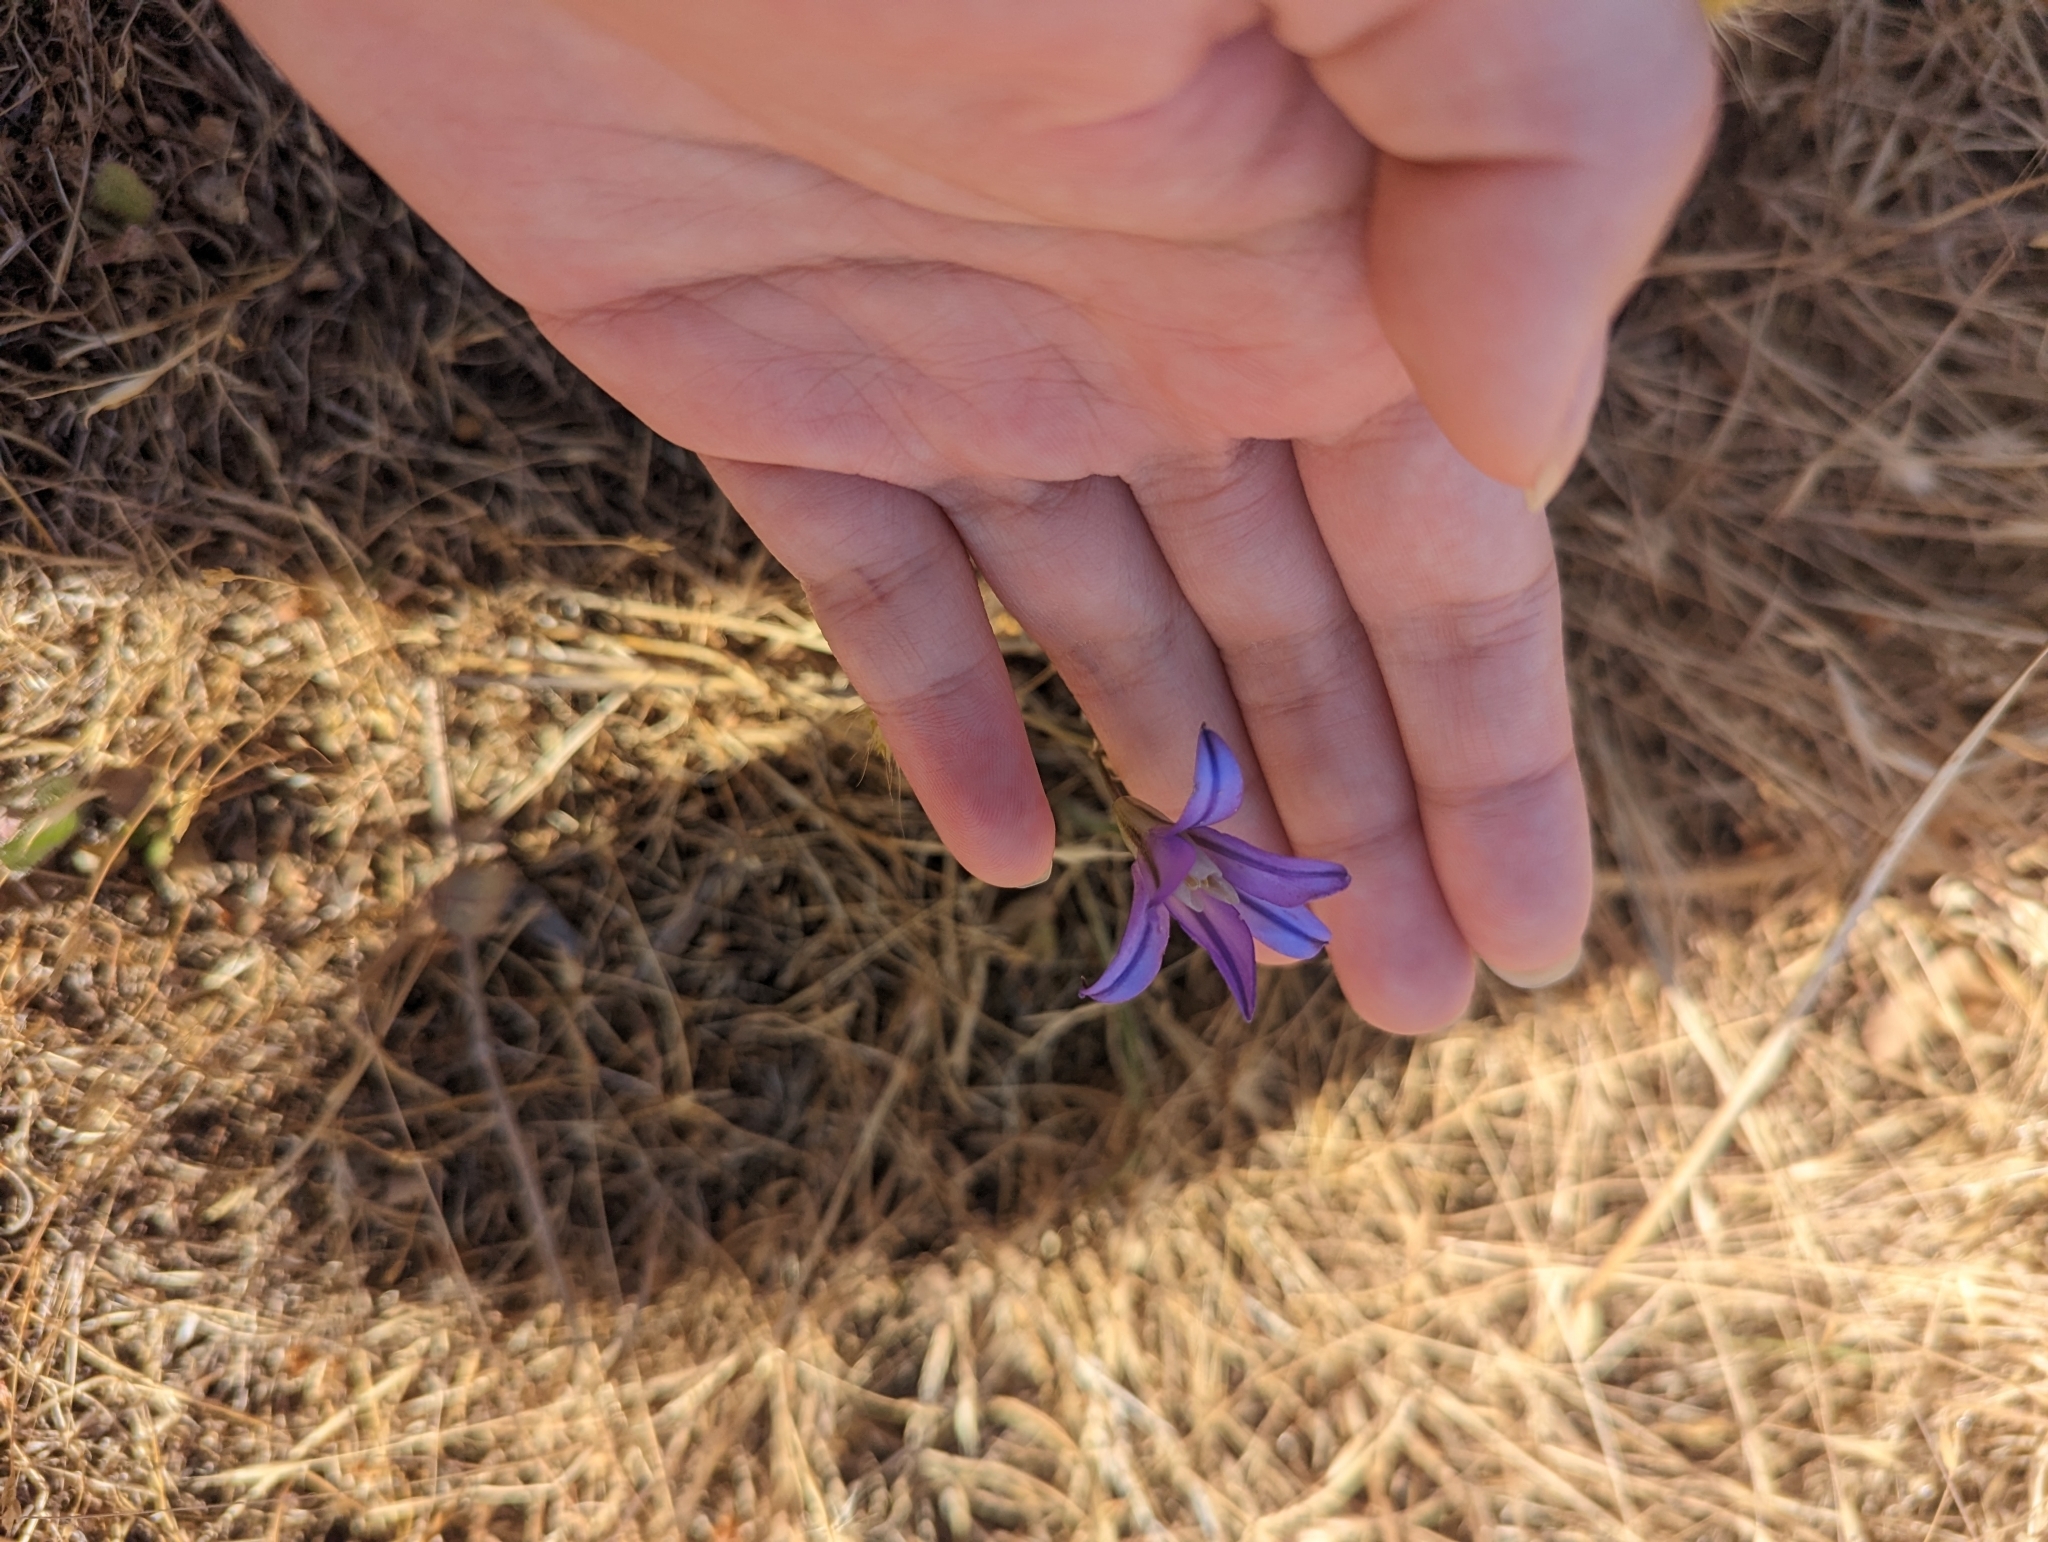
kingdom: Plantae
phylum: Tracheophyta
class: Liliopsida
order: Asparagales
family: Asparagaceae
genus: Brodiaea
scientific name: Brodiaea coronaria
